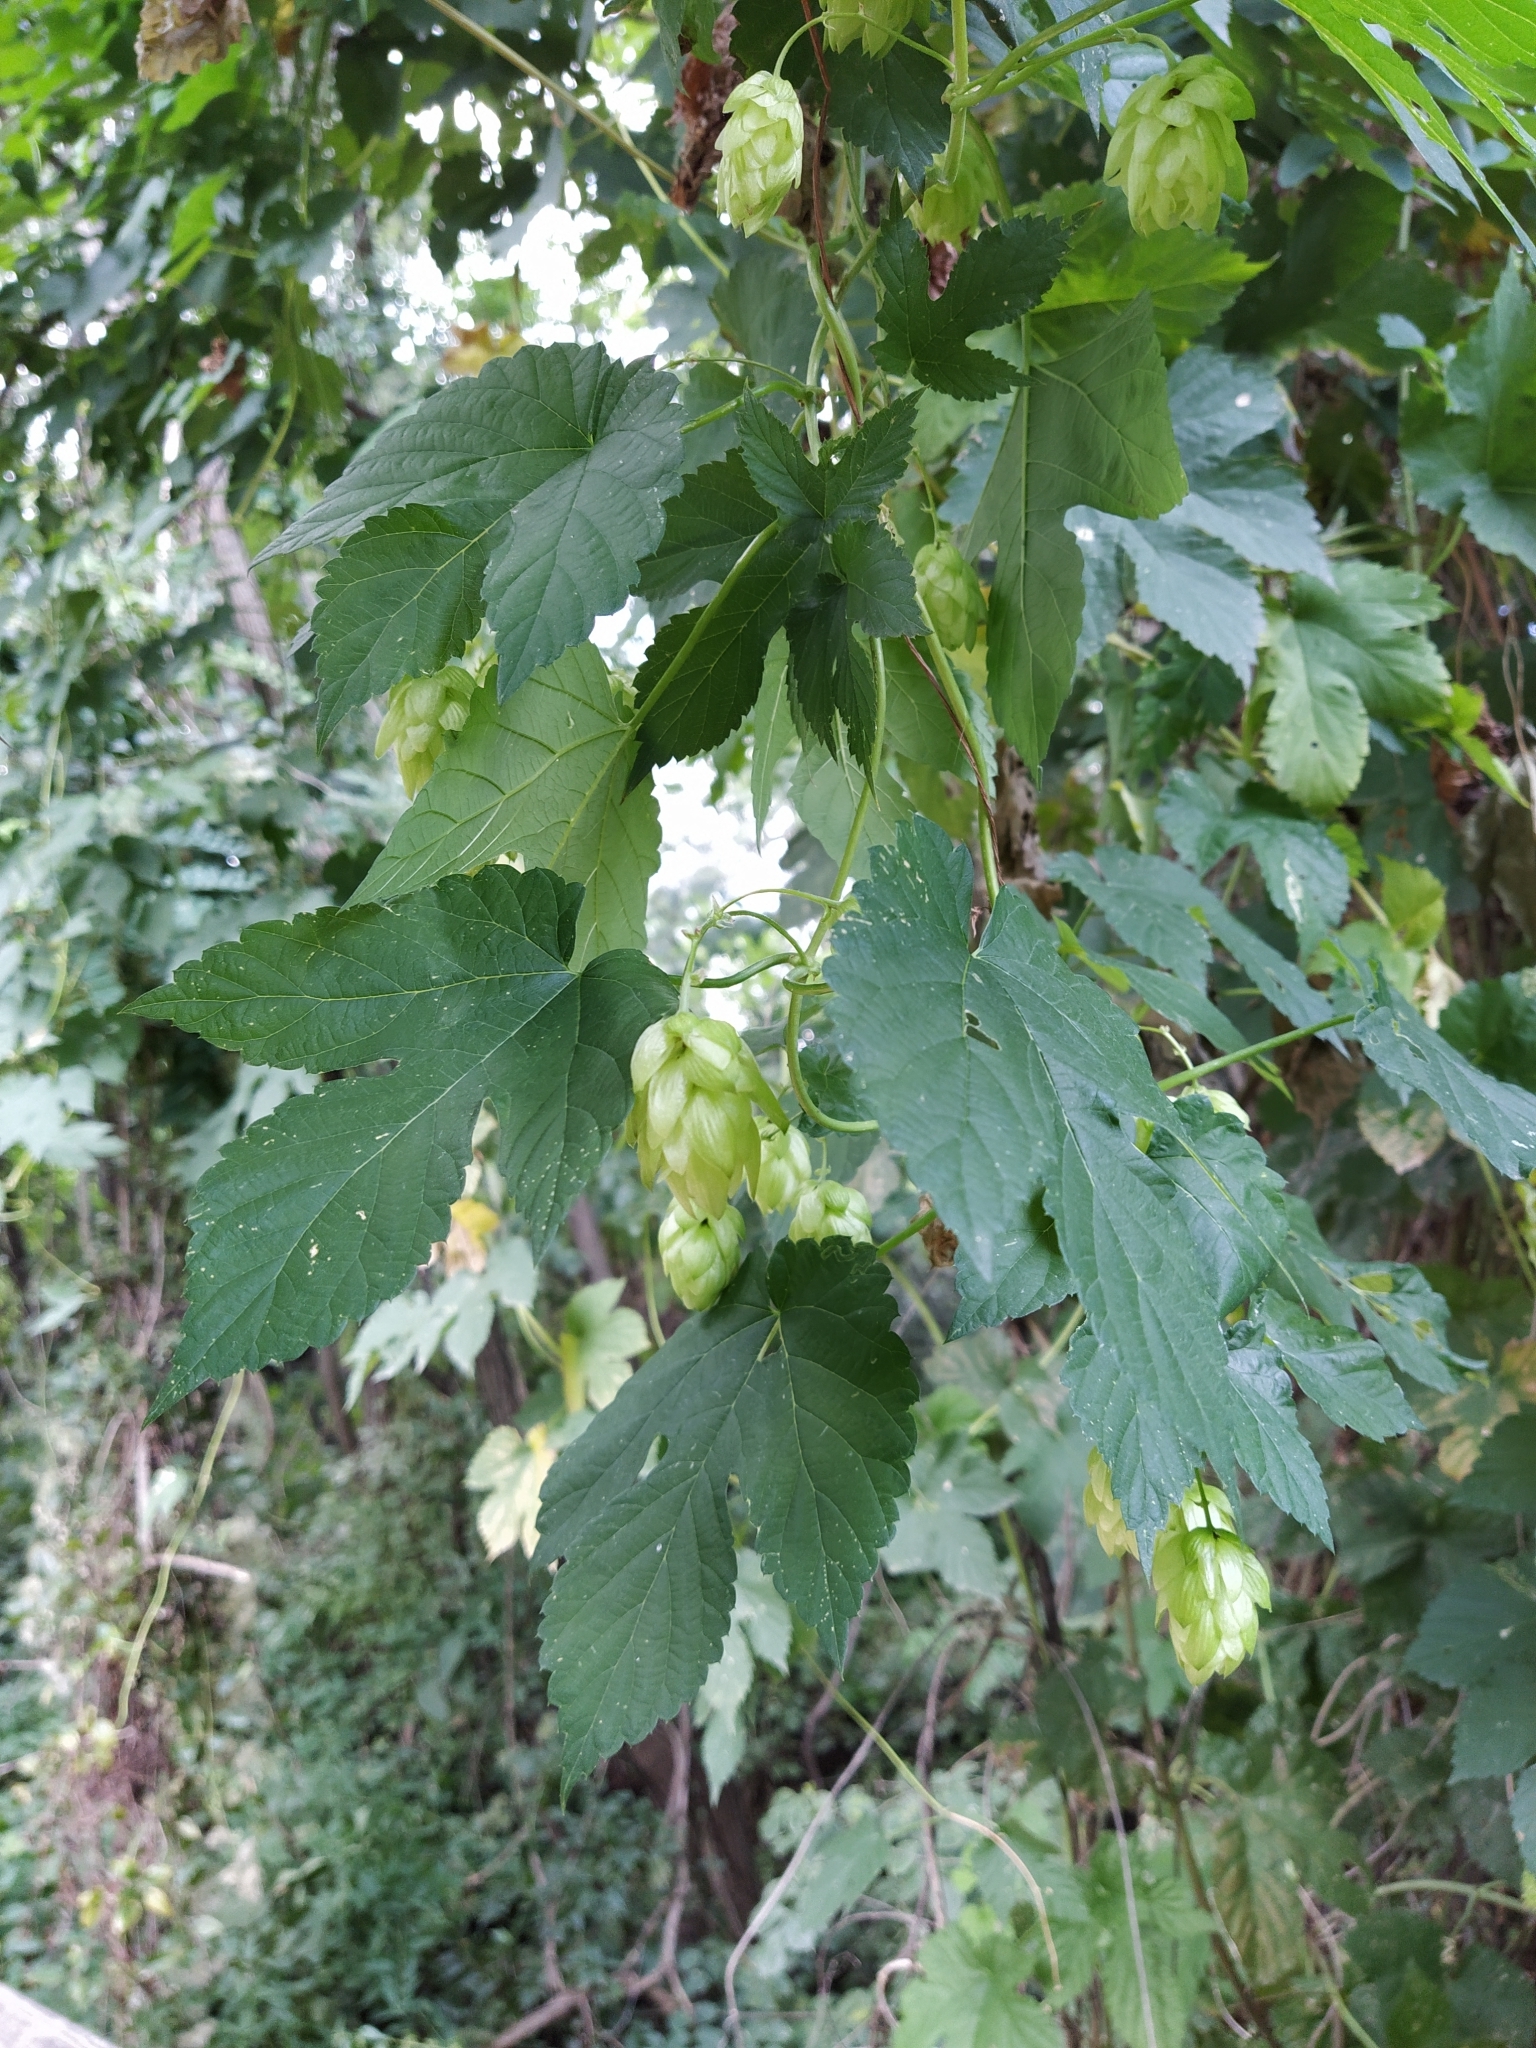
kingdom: Plantae
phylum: Tracheophyta
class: Magnoliopsida
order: Rosales
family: Cannabaceae
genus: Humulus
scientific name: Humulus lupulus
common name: Hop
